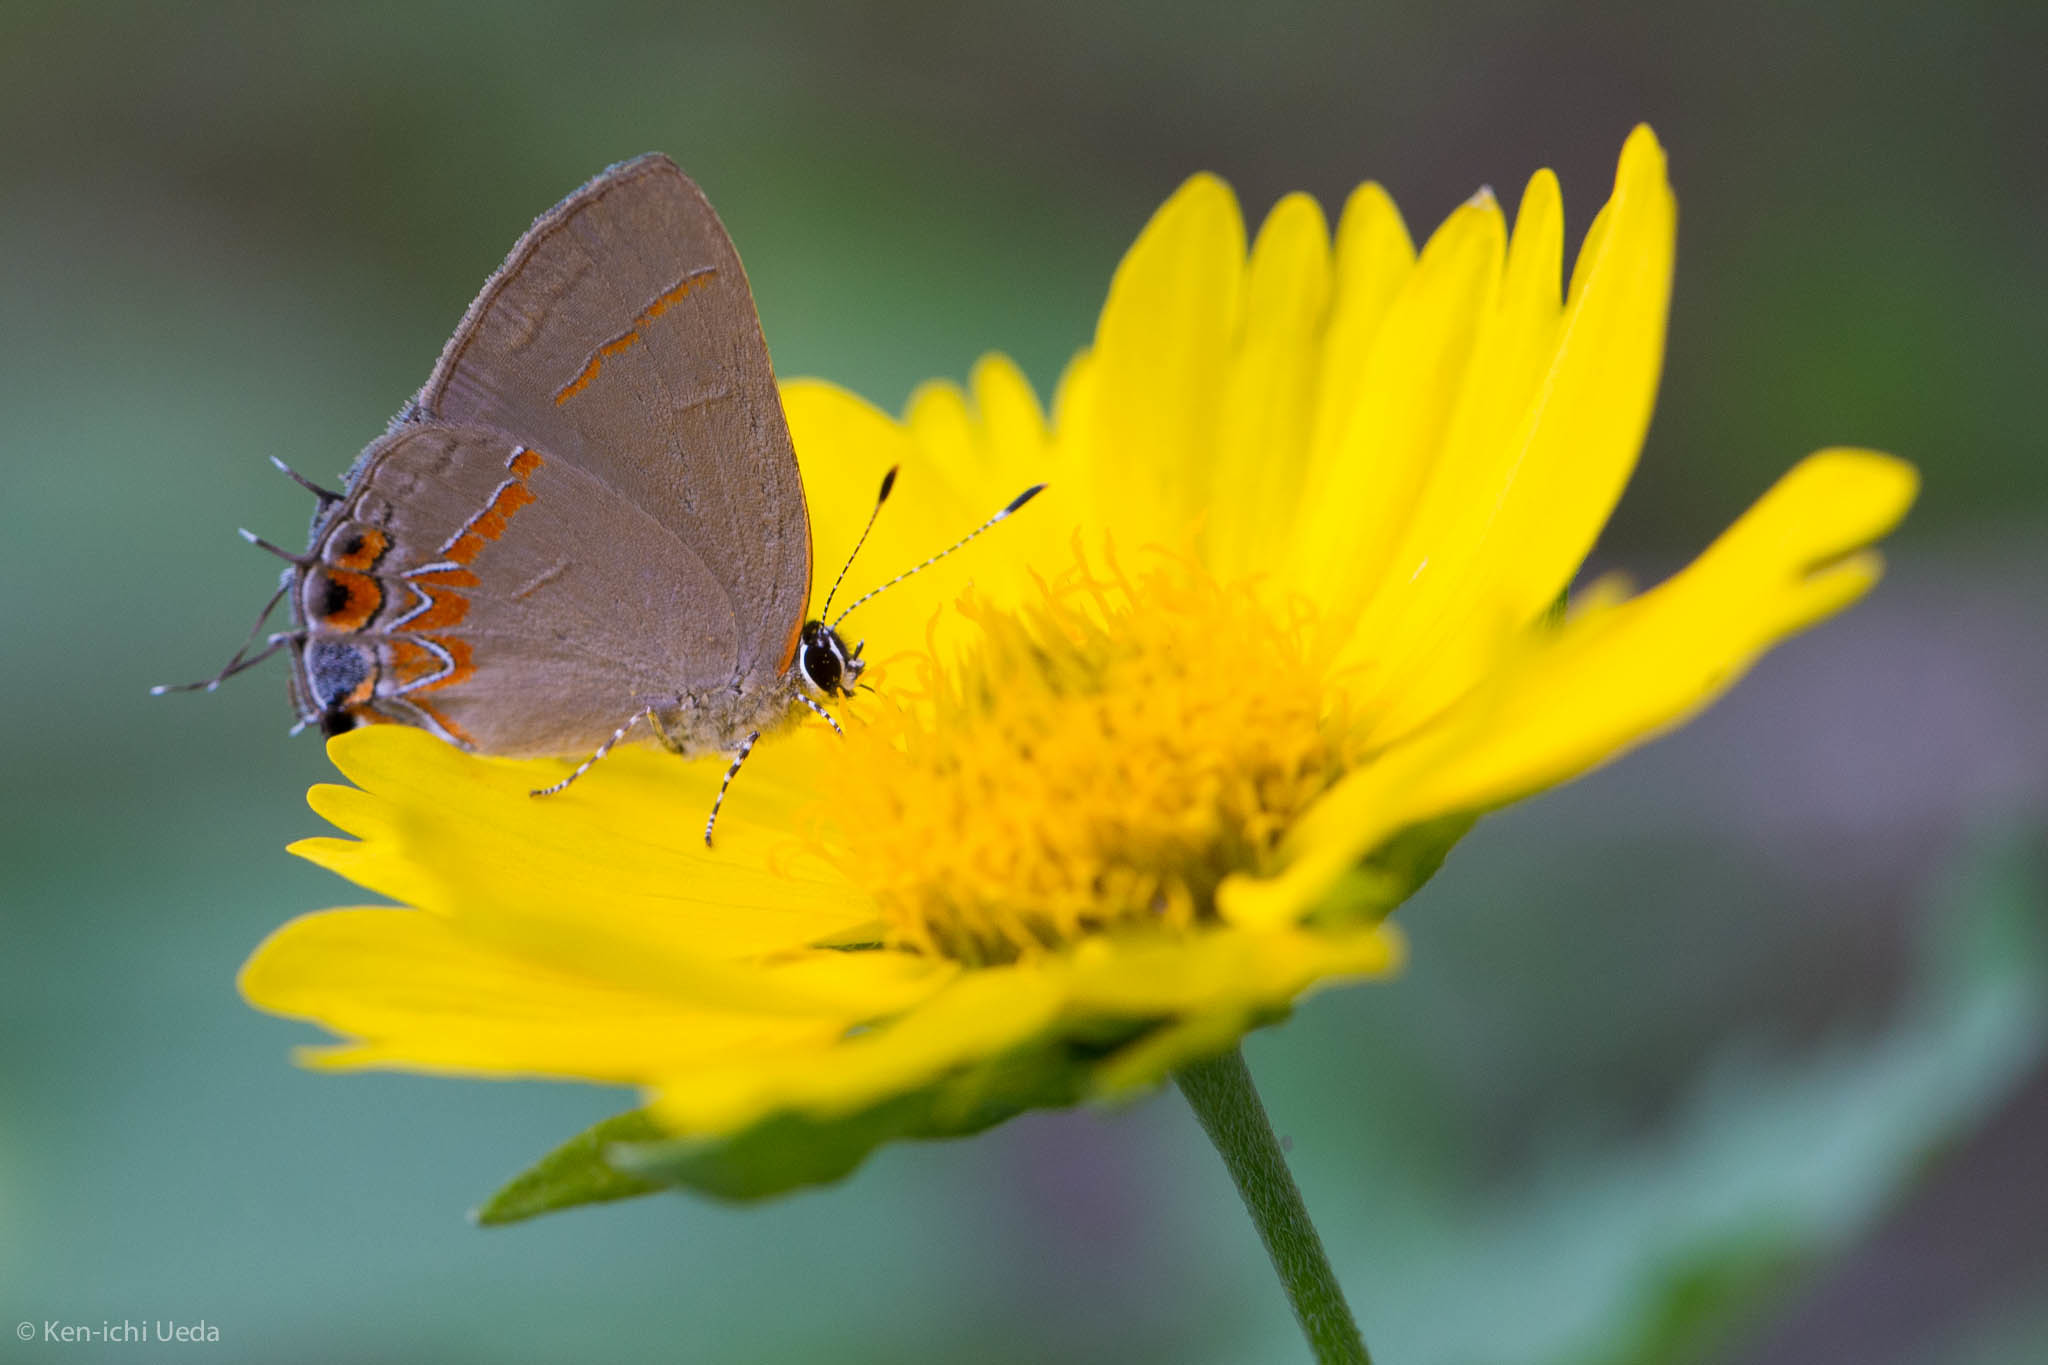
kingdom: Animalia
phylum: Arthropoda
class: Insecta
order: Lepidoptera
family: Lycaenidae
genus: Calycopis
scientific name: Calycopis isobeon
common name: Dusky-blue groundstreak
